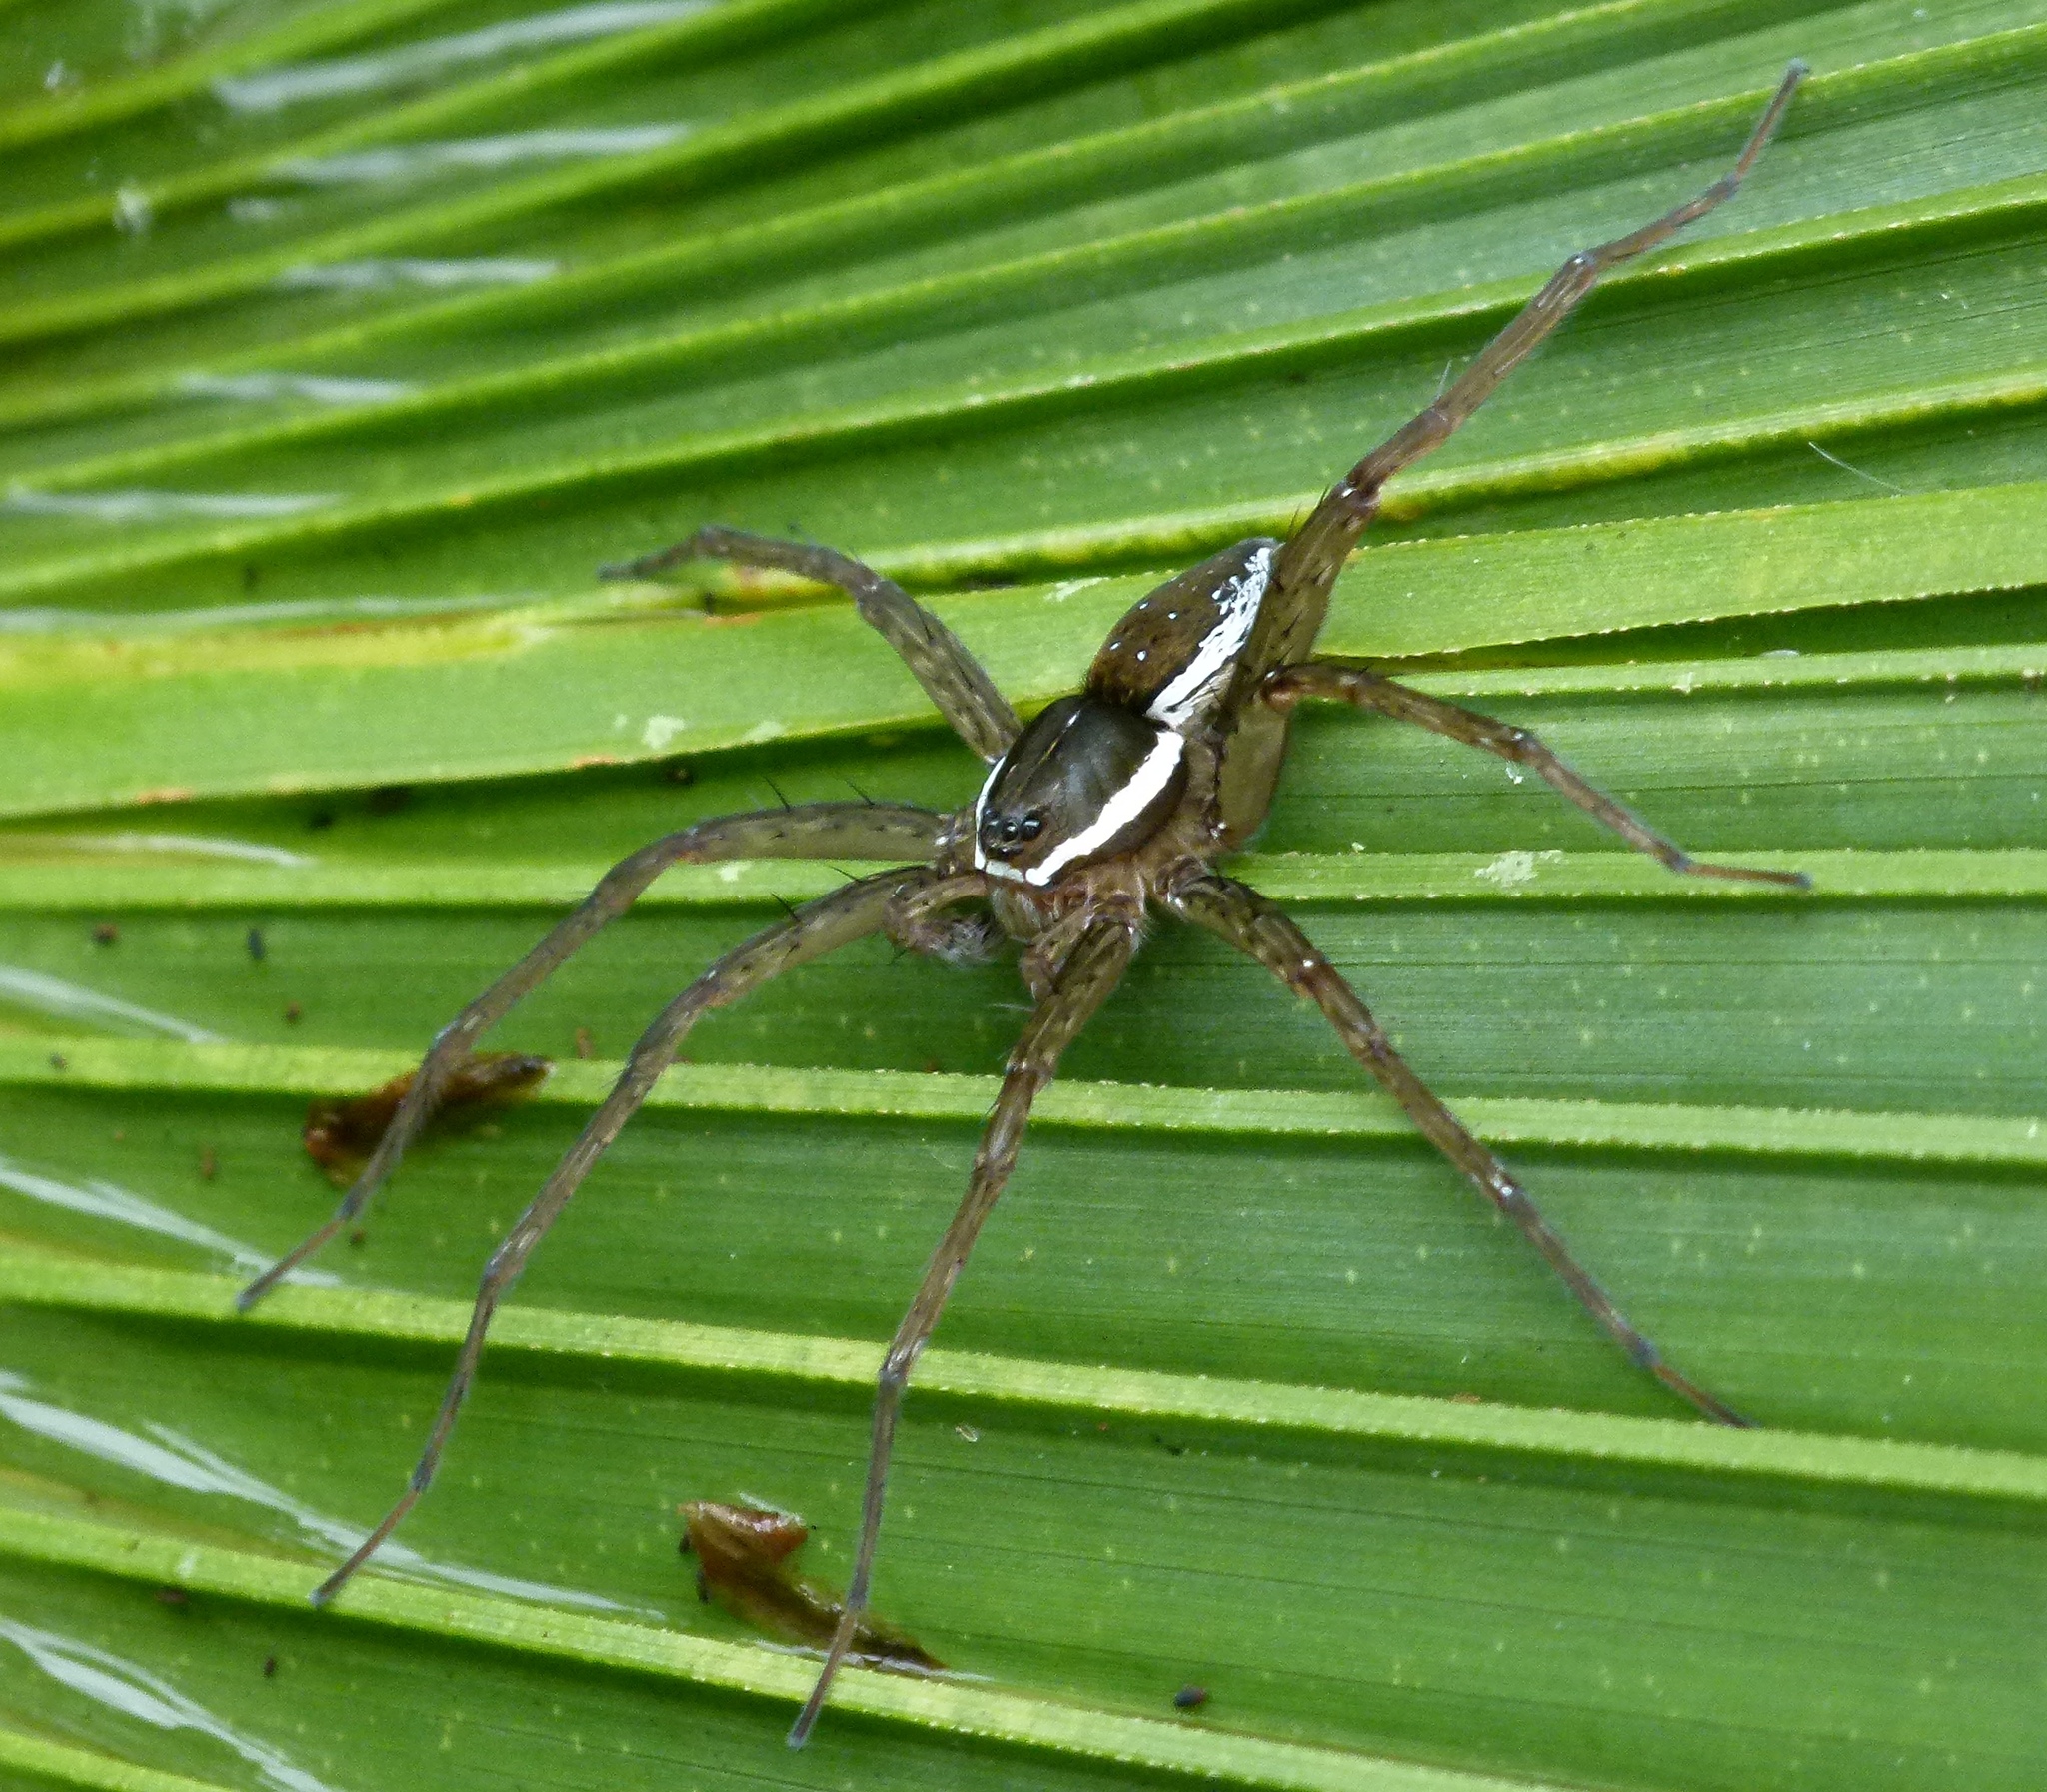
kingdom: Animalia
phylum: Arthropoda
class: Arachnida
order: Araneae
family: Pisauridae
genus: Dolomedes
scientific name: Dolomedes triton
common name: Six-spotted fishing spider
